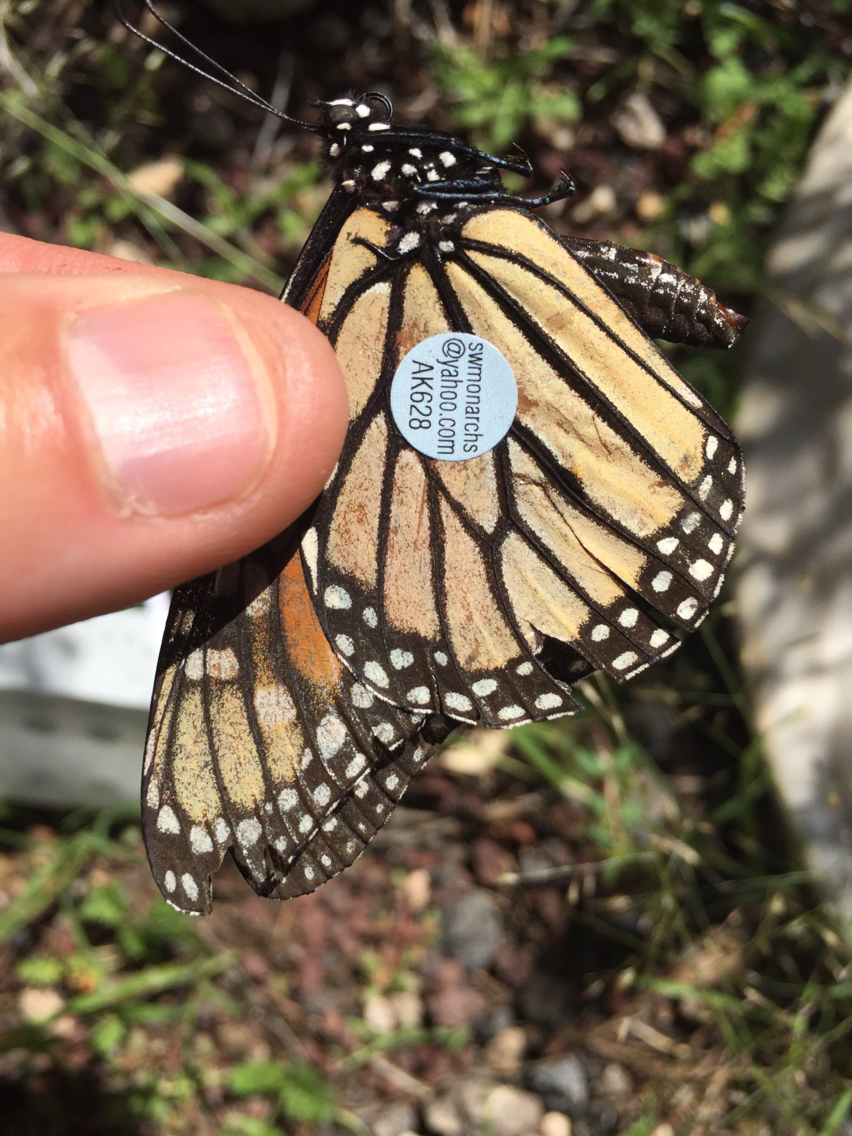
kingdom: Animalia
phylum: Arthropoda
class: Insecta
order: Lepidoptera
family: Nymphalidae
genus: Danaus
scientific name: Danaus plexippus
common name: Monarch
